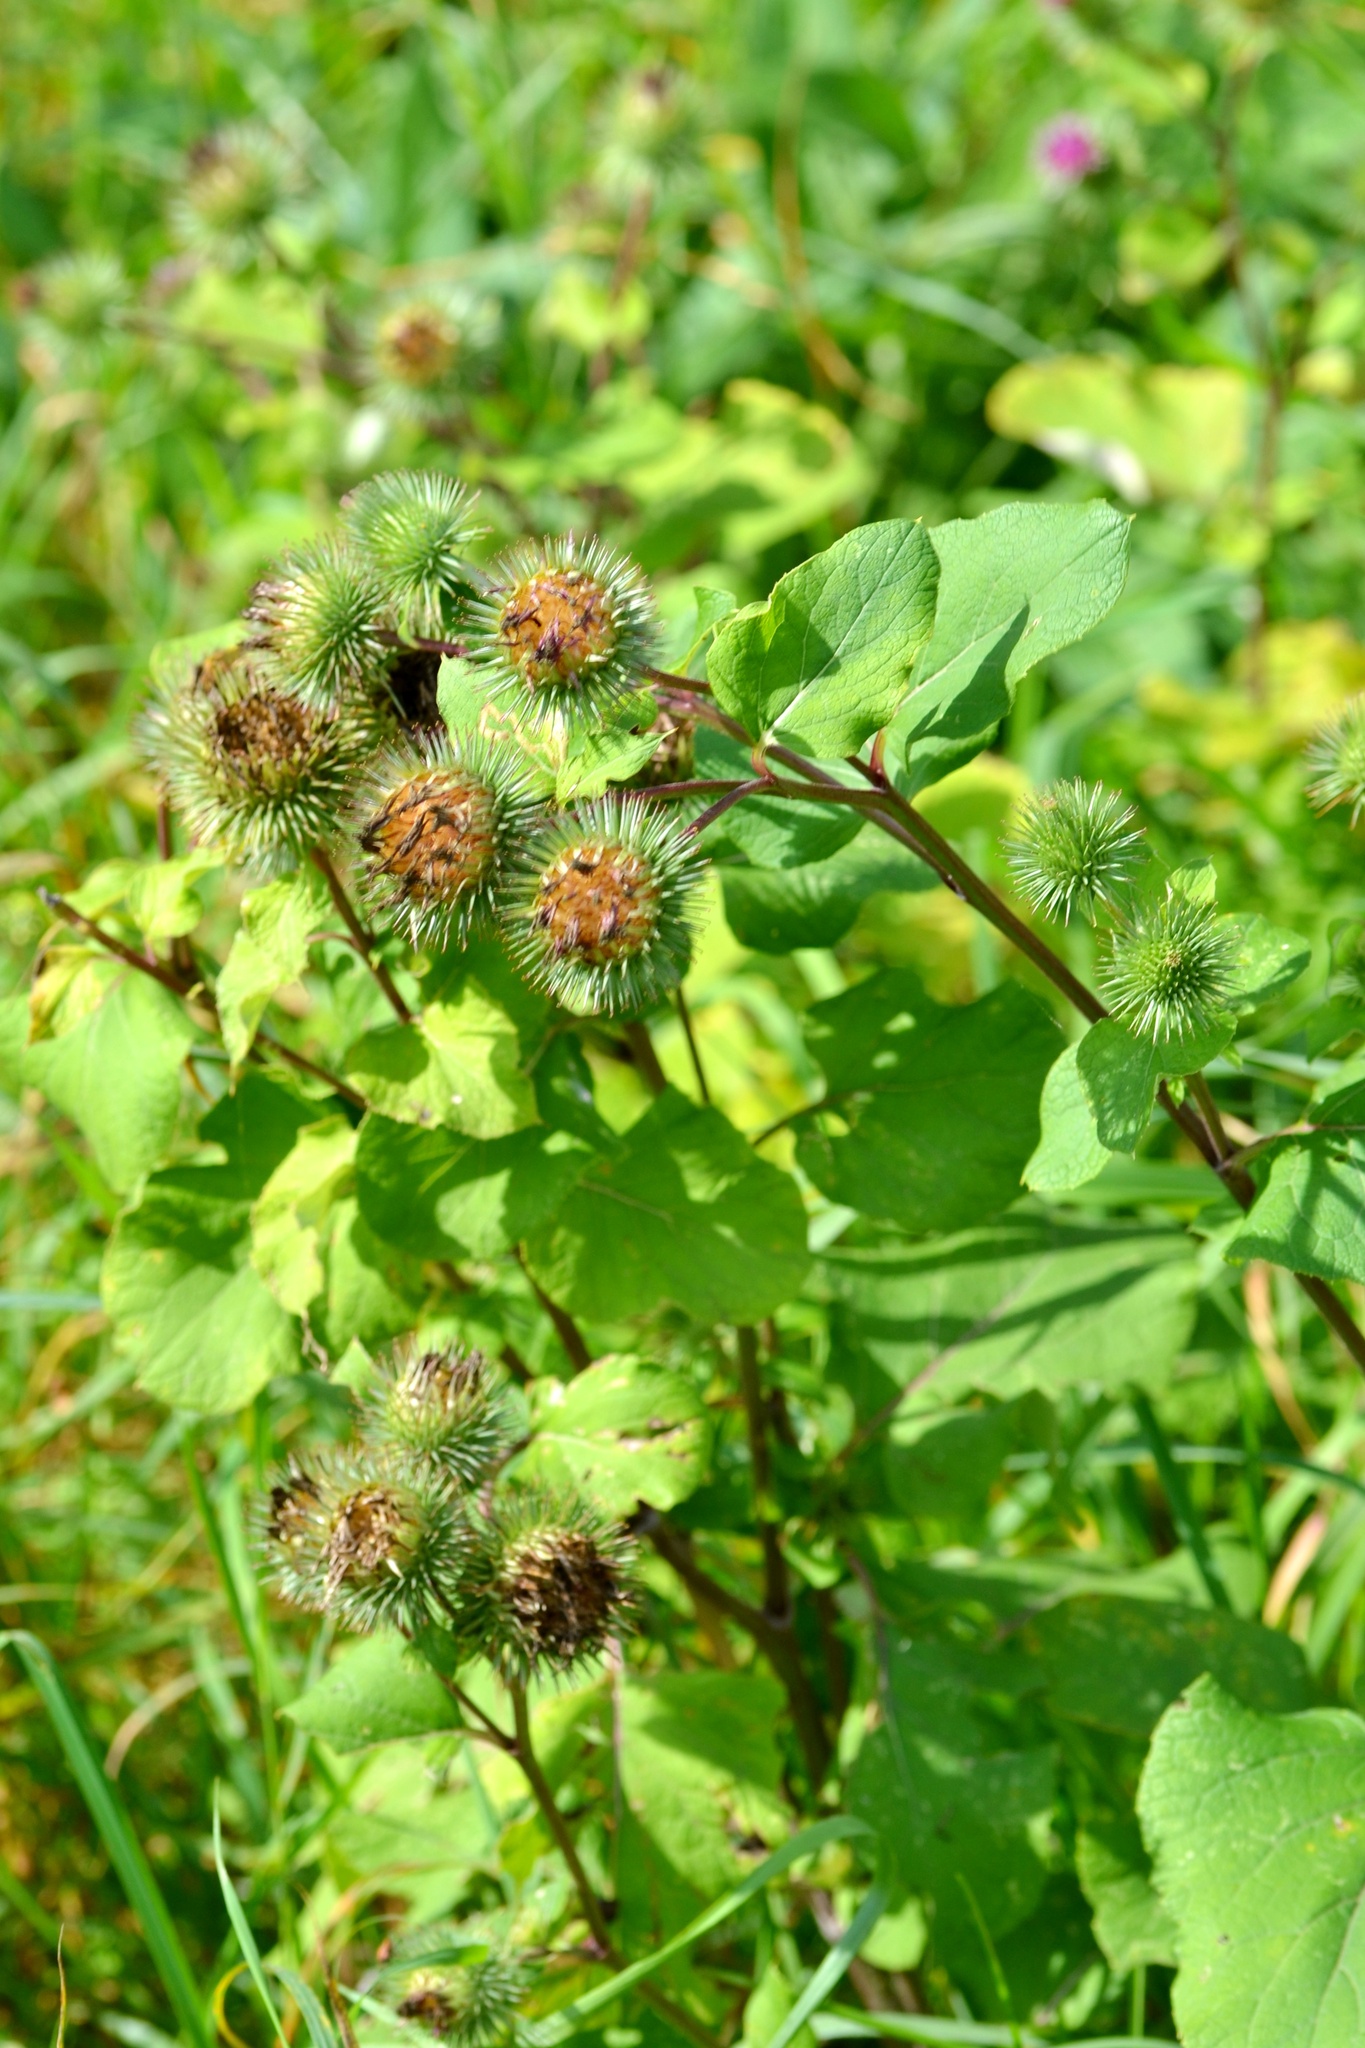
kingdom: Plantae
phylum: Tracheophyta
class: Magnoliopsida
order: Asterales
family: Asteraceae
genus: Arctium
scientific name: Arctium lappa
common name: Greater burdock
